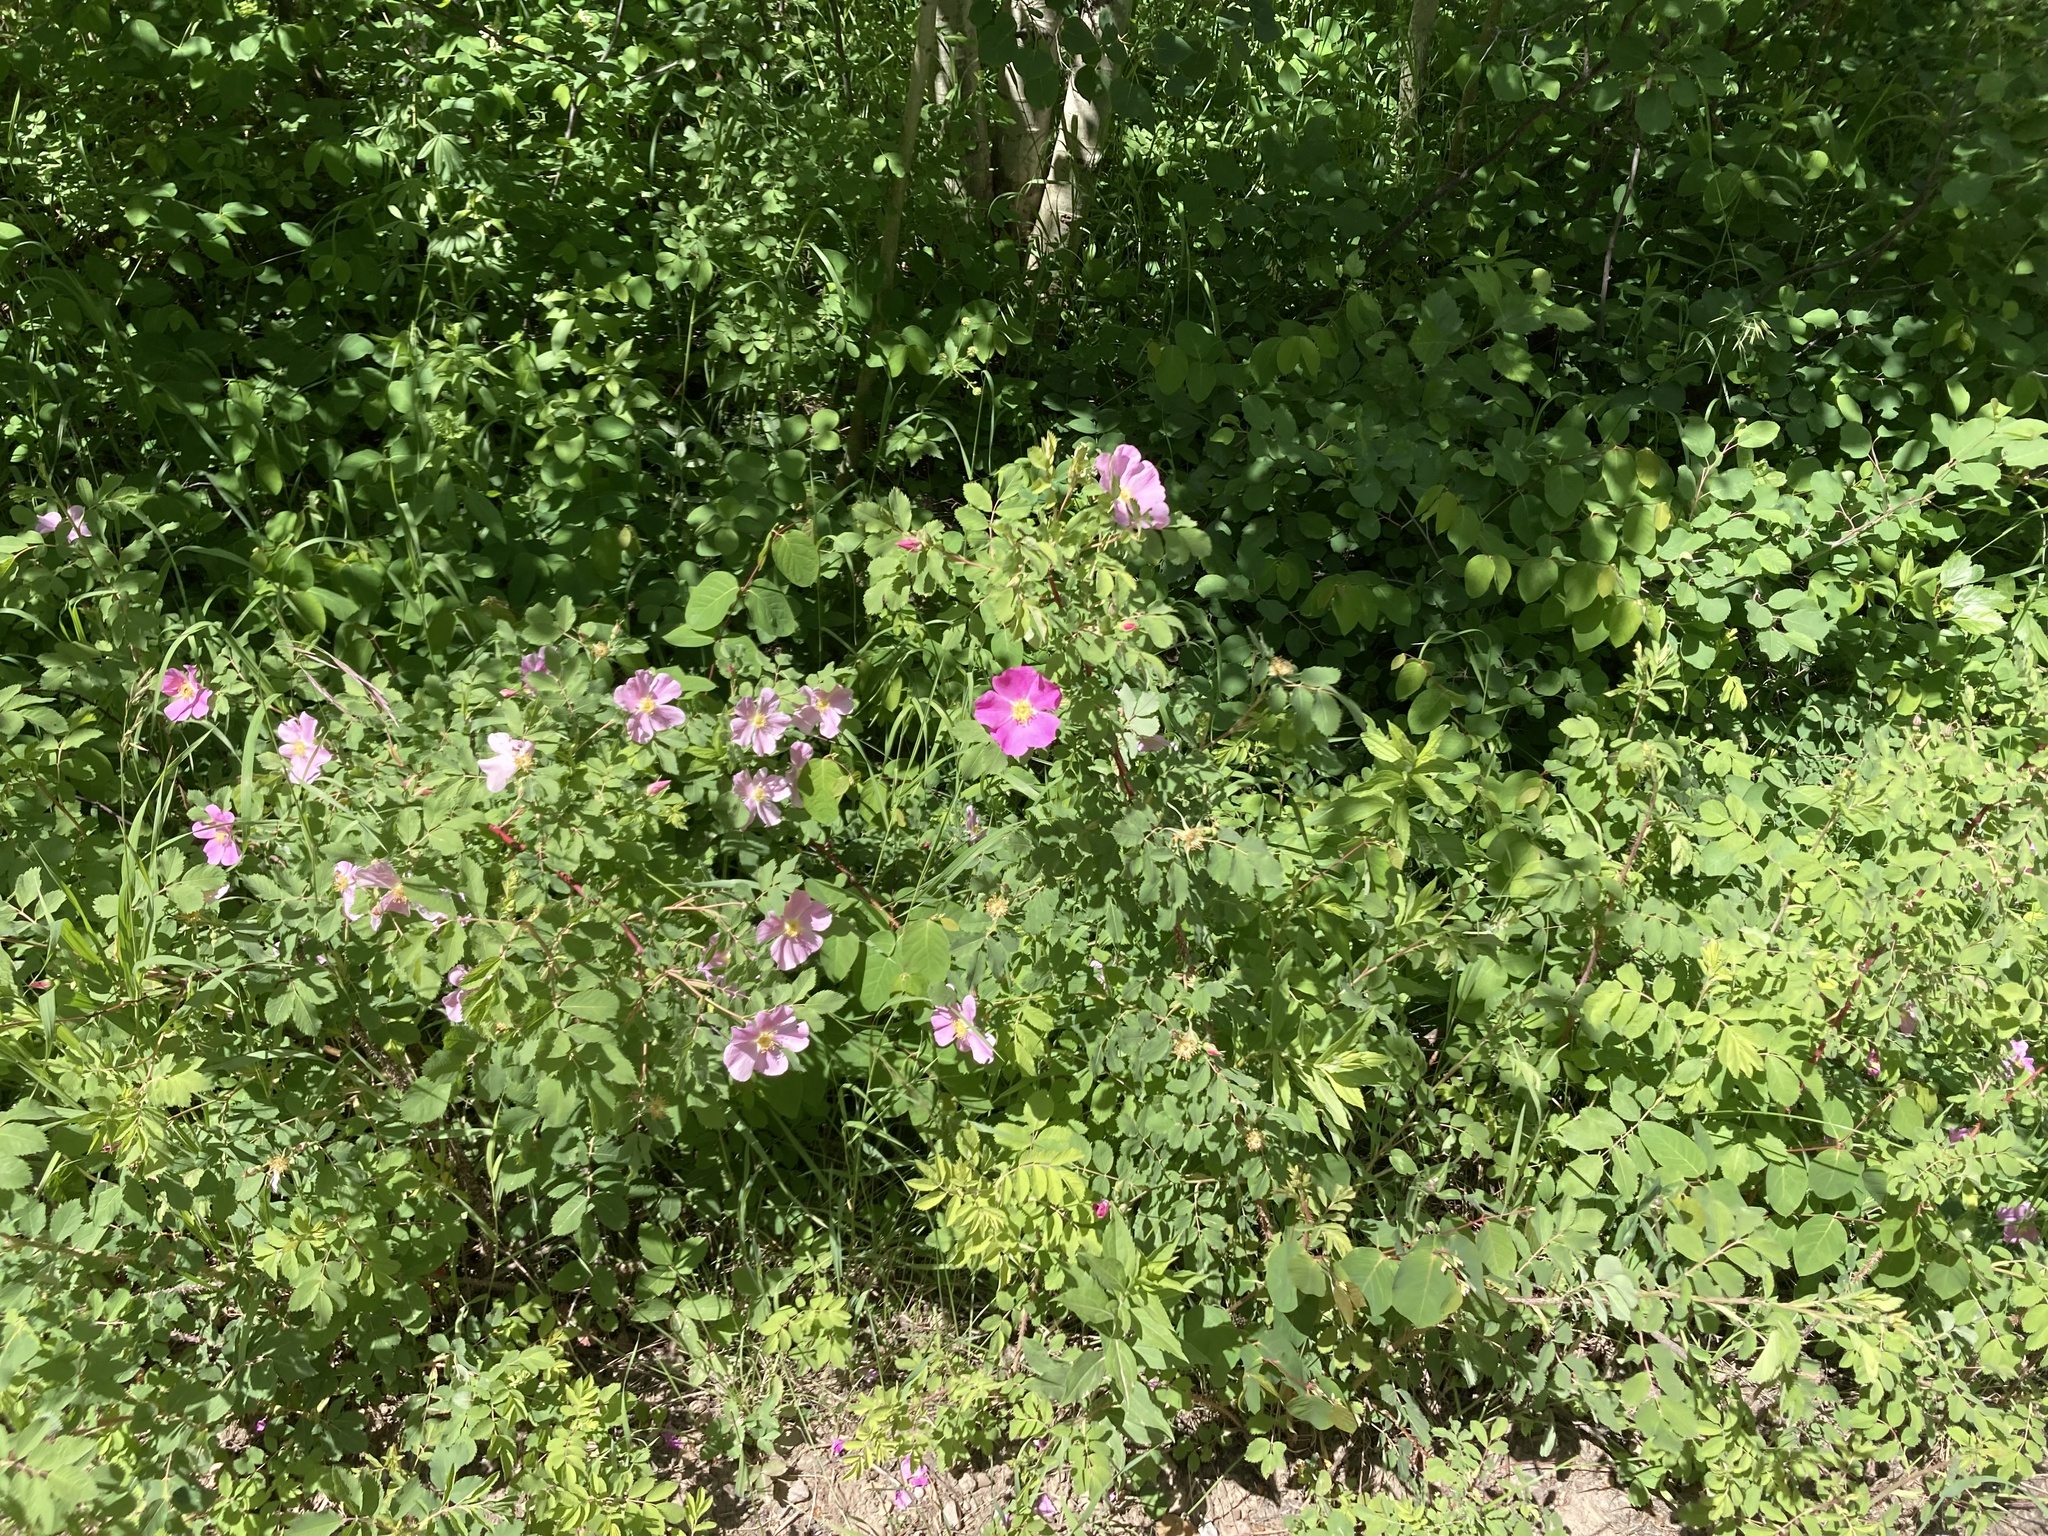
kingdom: Plantae
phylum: Tracheophyta
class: Magnoliopsida
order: Rosales
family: Rosaceae
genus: Rosa
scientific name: Rosa woodsii
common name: Woods's rose
